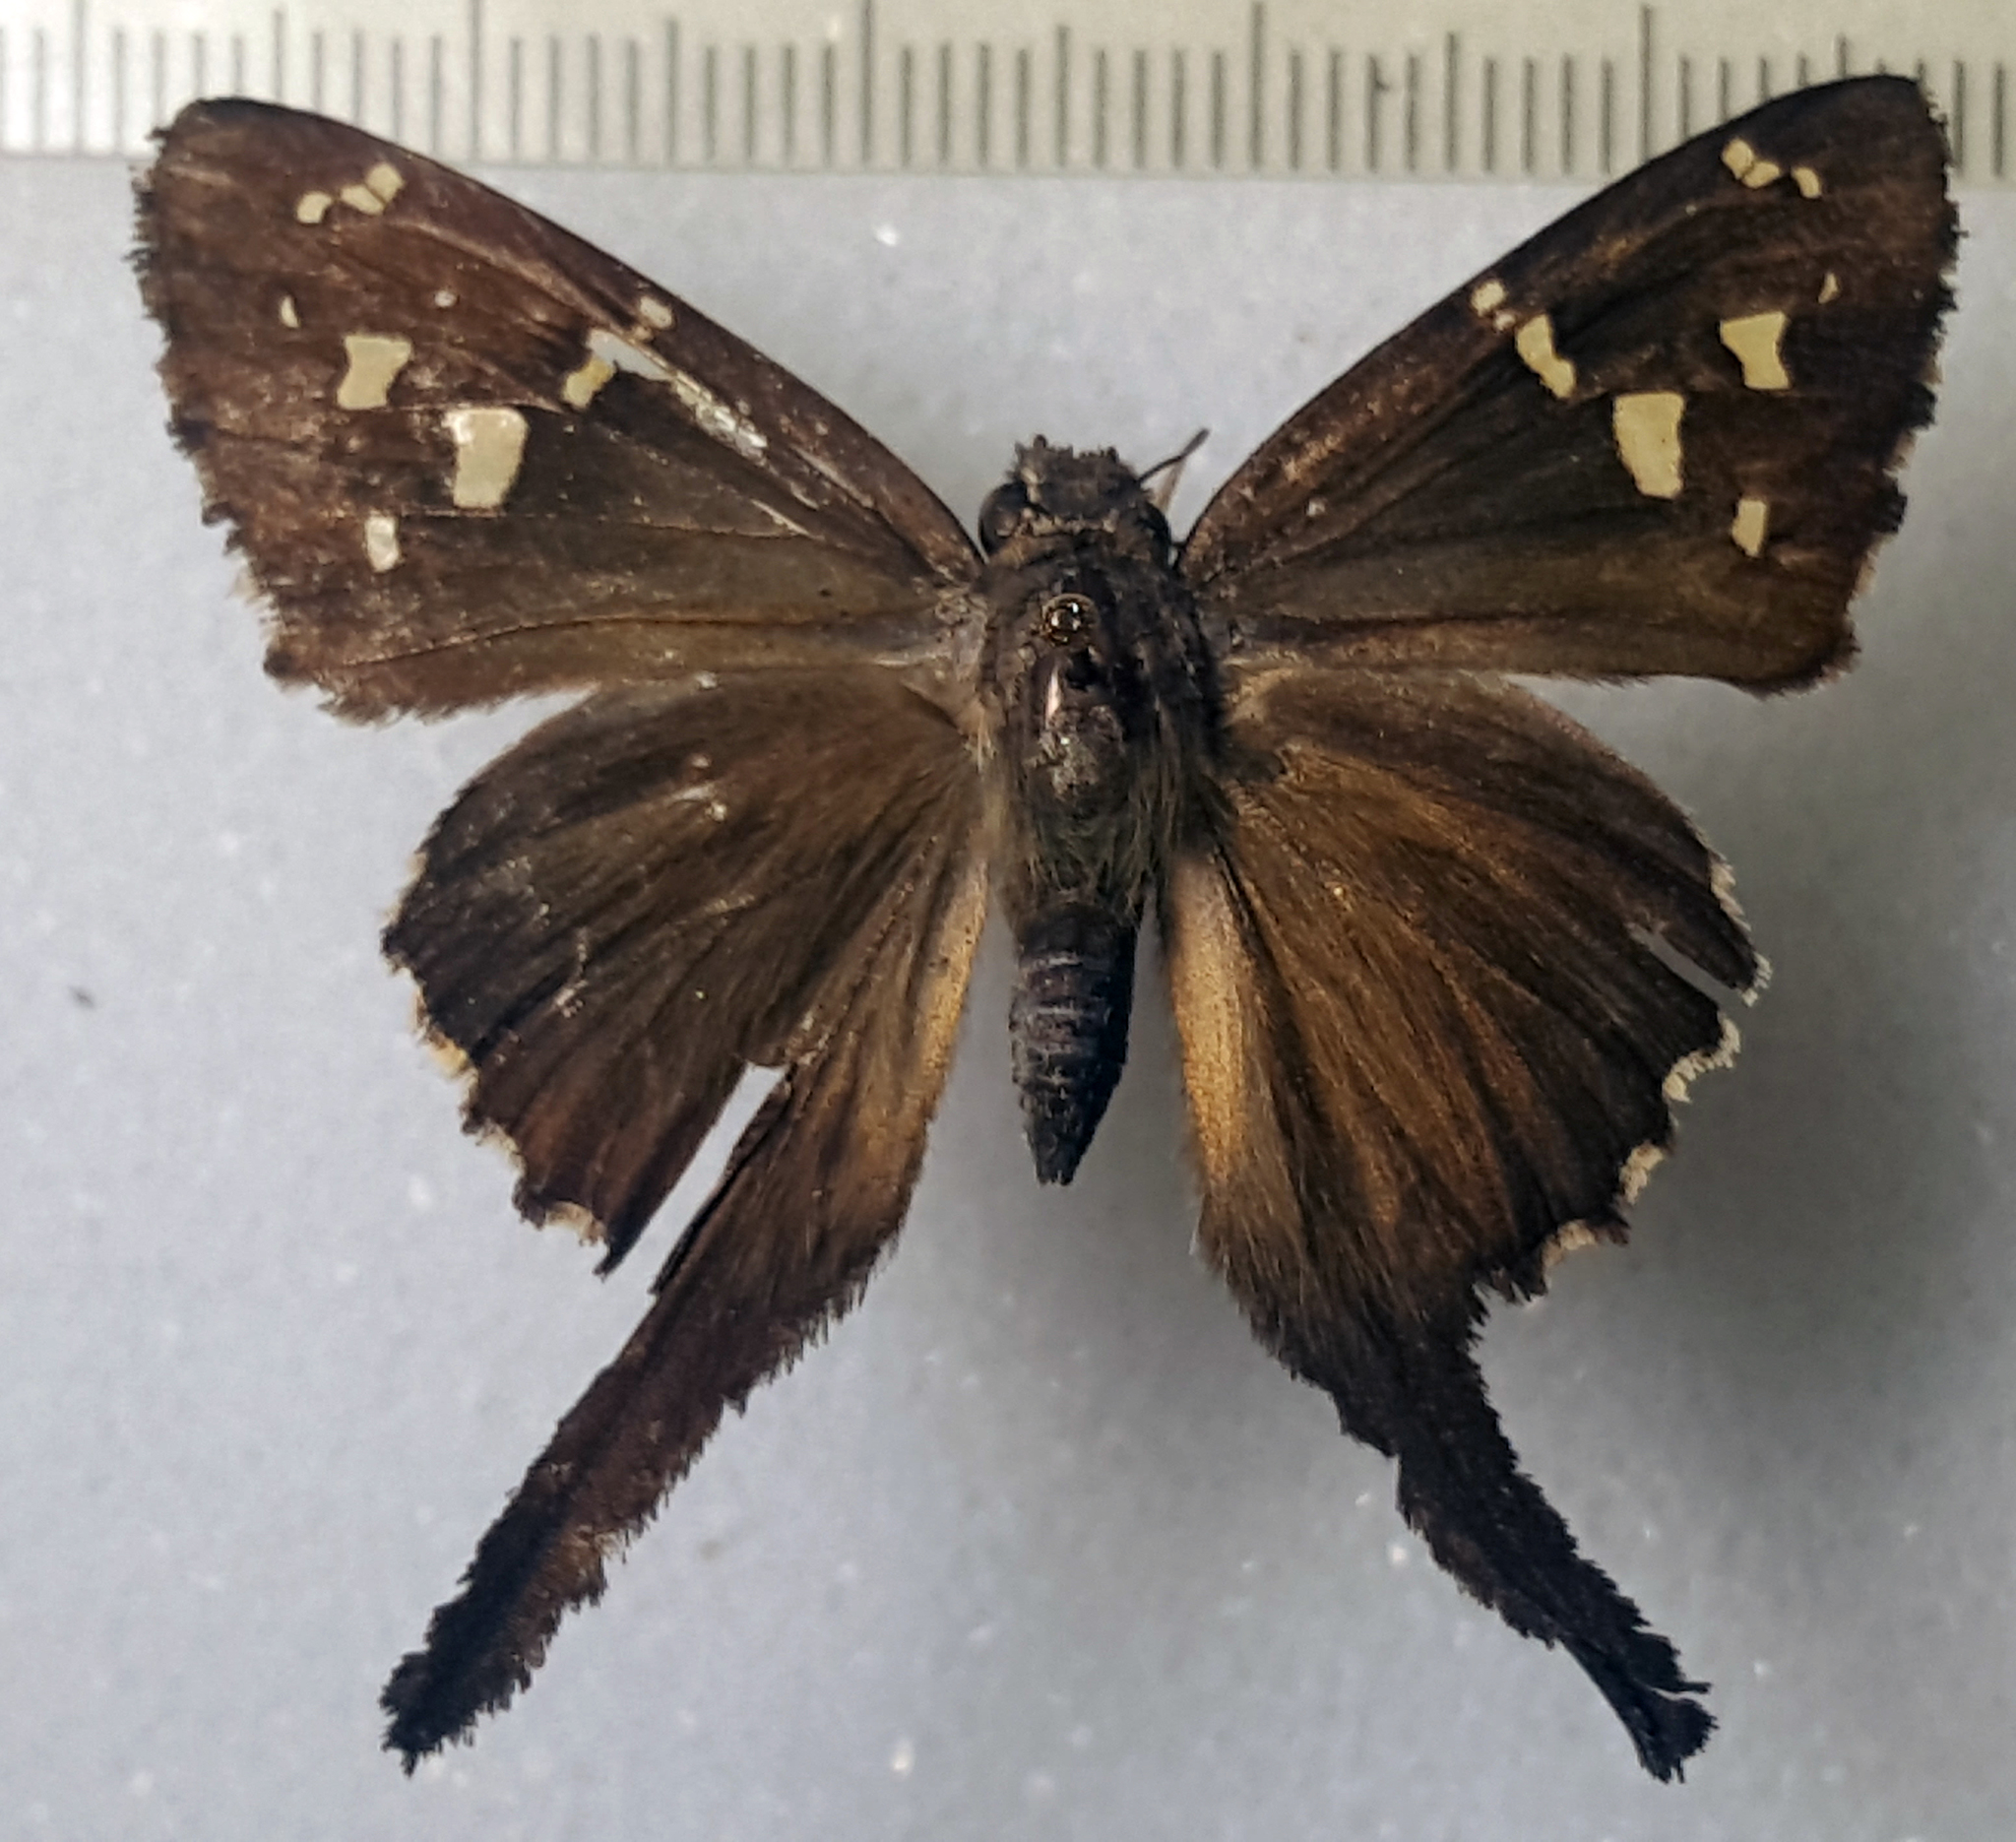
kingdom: Animalia
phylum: Arthropoda
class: Insecta
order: Lepidoptera
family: Hesperiidae
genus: Thorybes
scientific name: Thorybes
